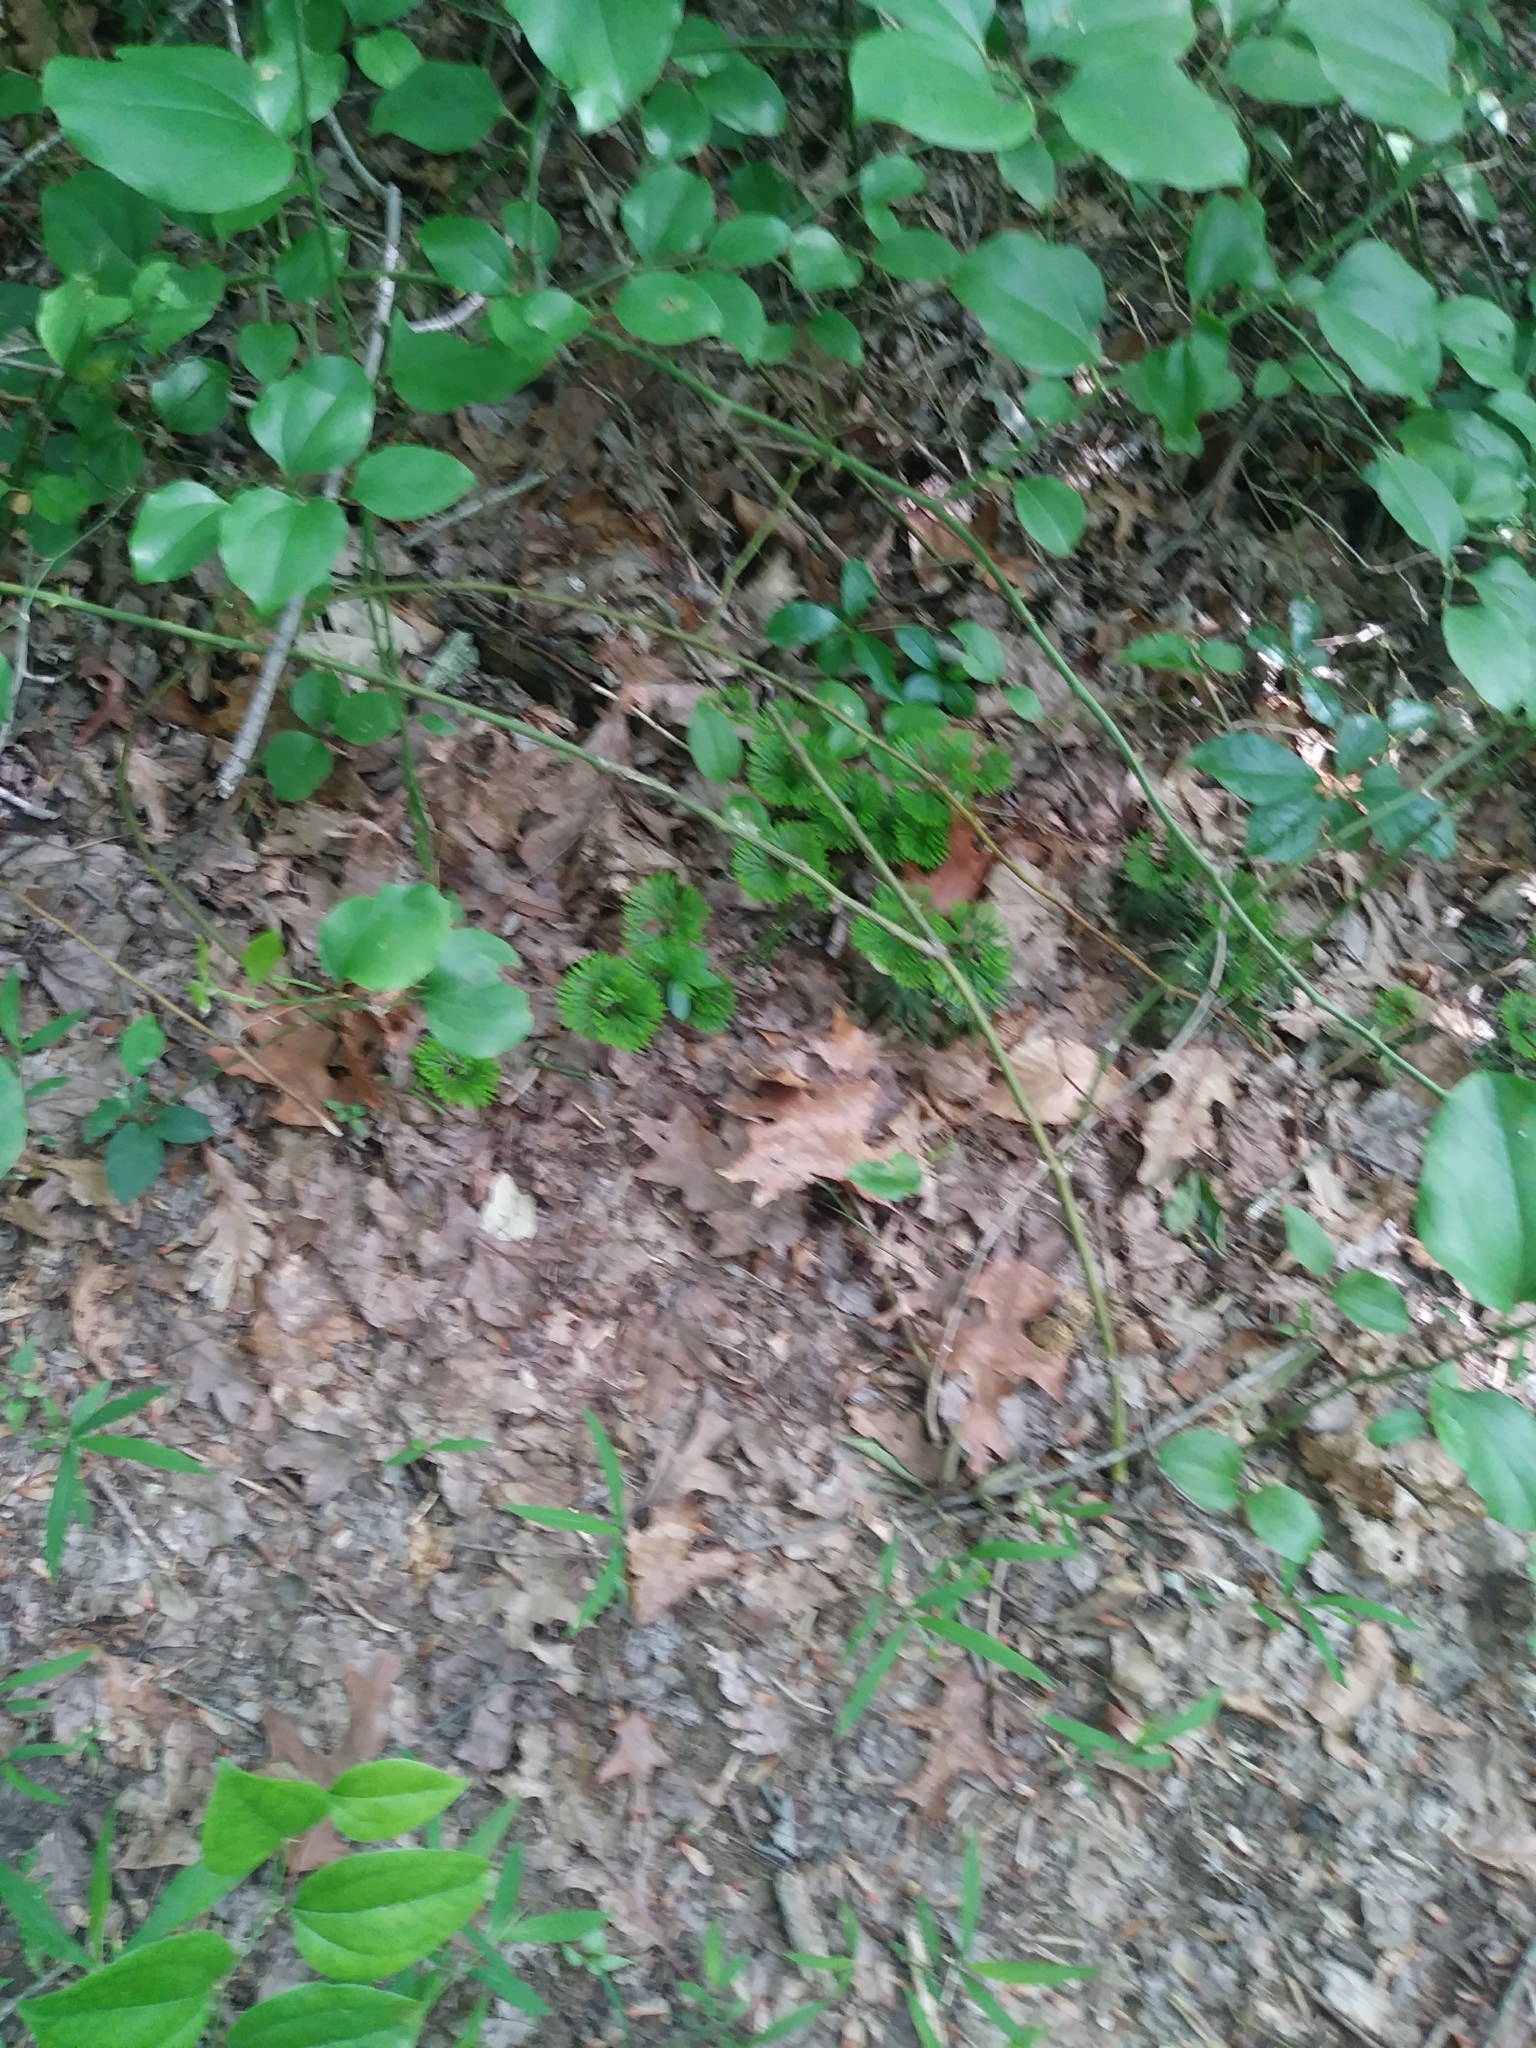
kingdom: Plantae
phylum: Tracheophyta
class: Lycopodiopsida
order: Lycopodiales
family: Lycopodiaceae
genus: Diphasiastrum
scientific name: Diphasiastrum digitatum
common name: Southern running-pine
